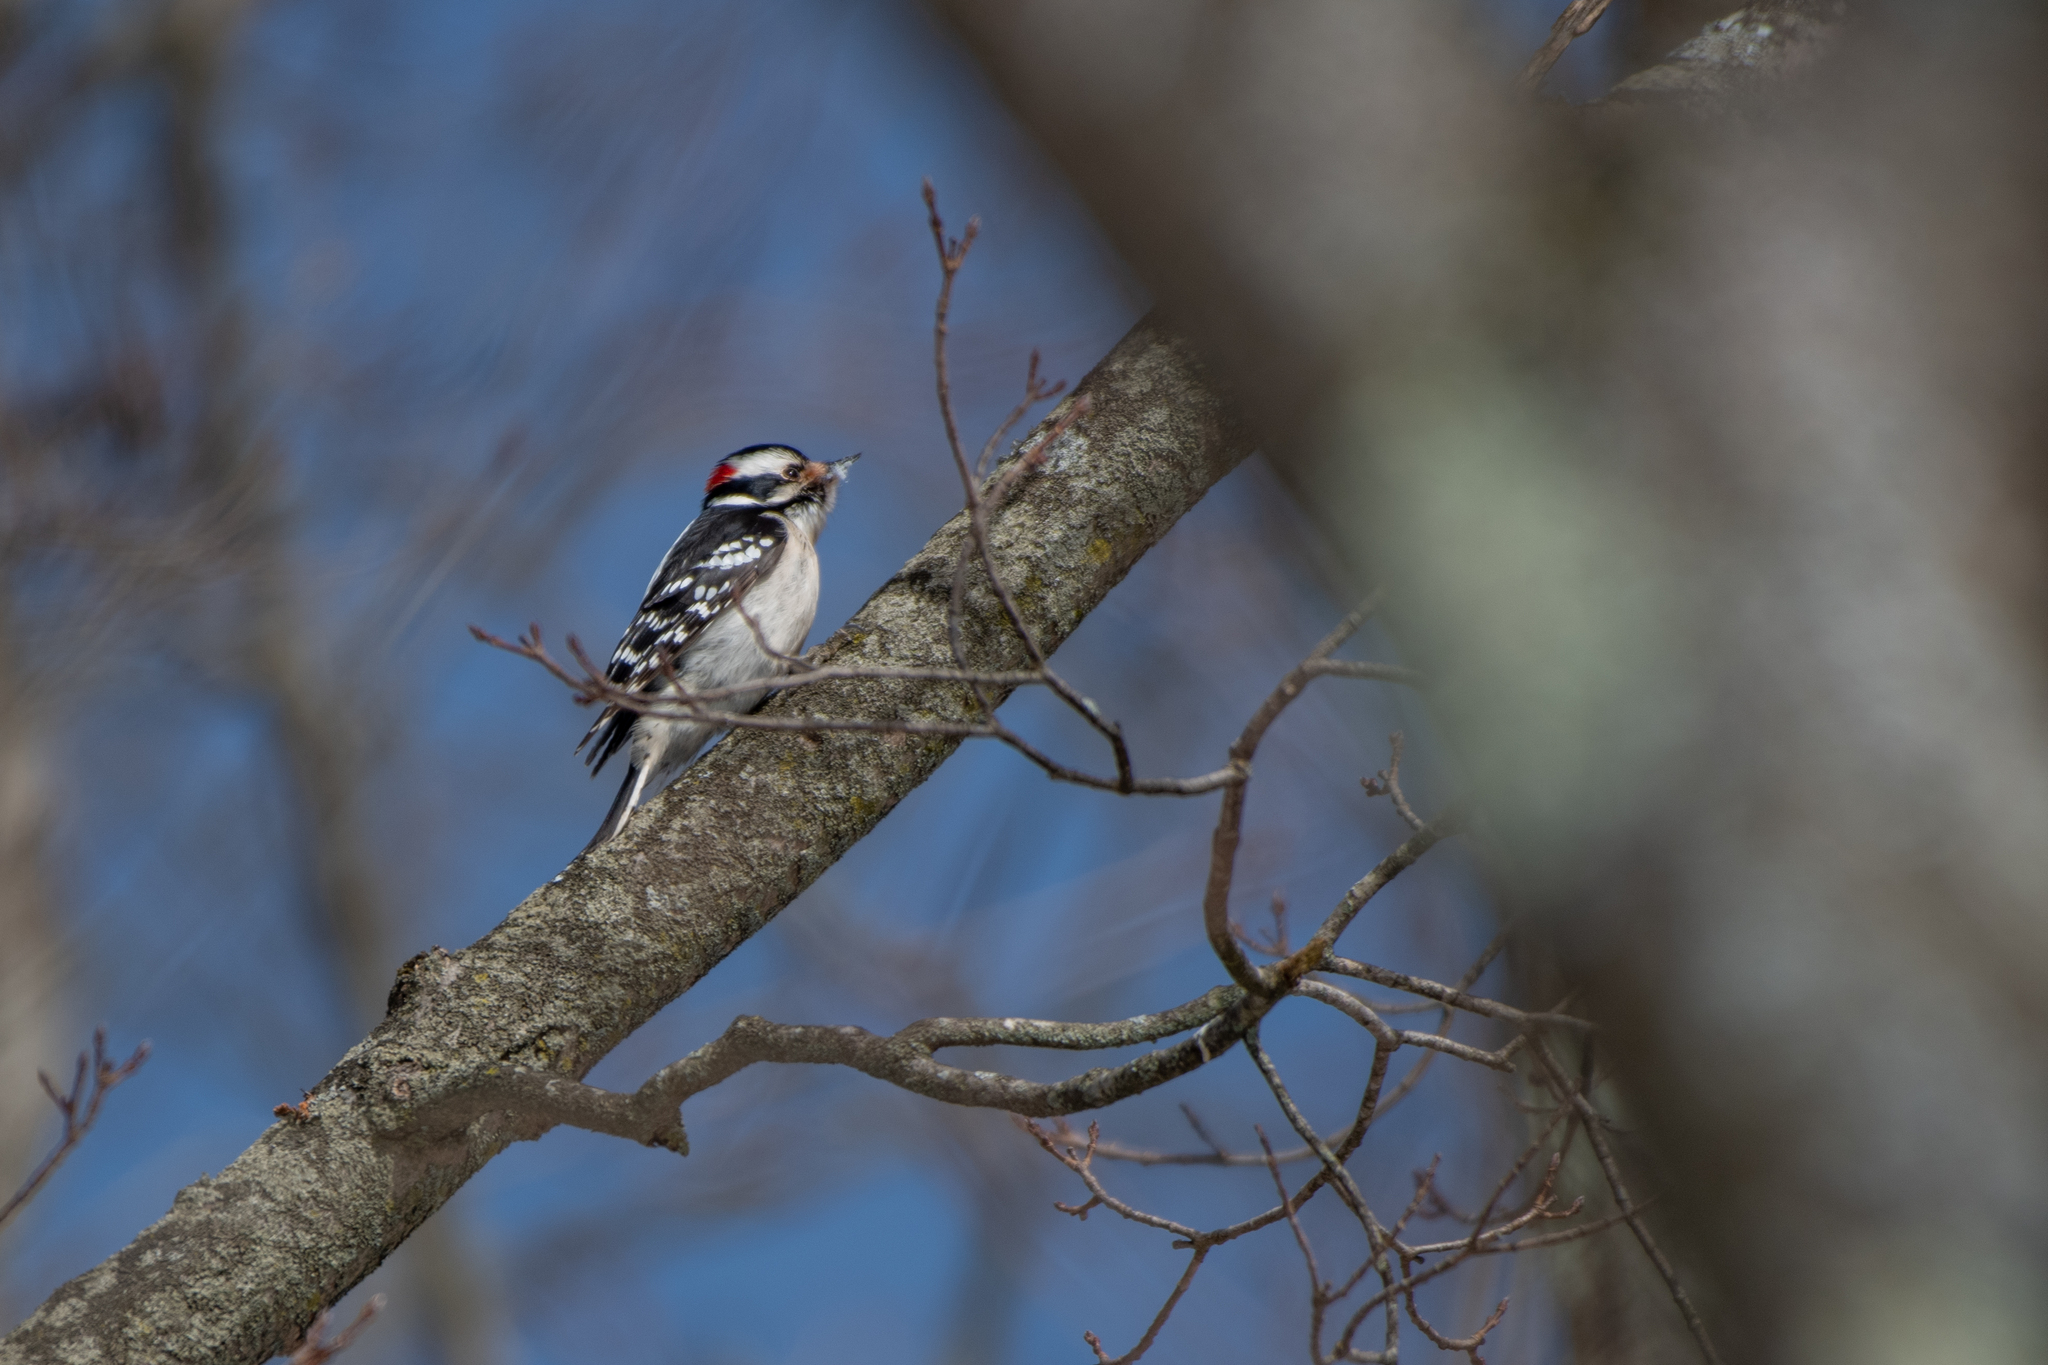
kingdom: Animalia
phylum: Chordata
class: Aves
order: Piciformes
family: Picidae
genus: Dryobates
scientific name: Dryobates pubescens
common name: Downy woodpecker
